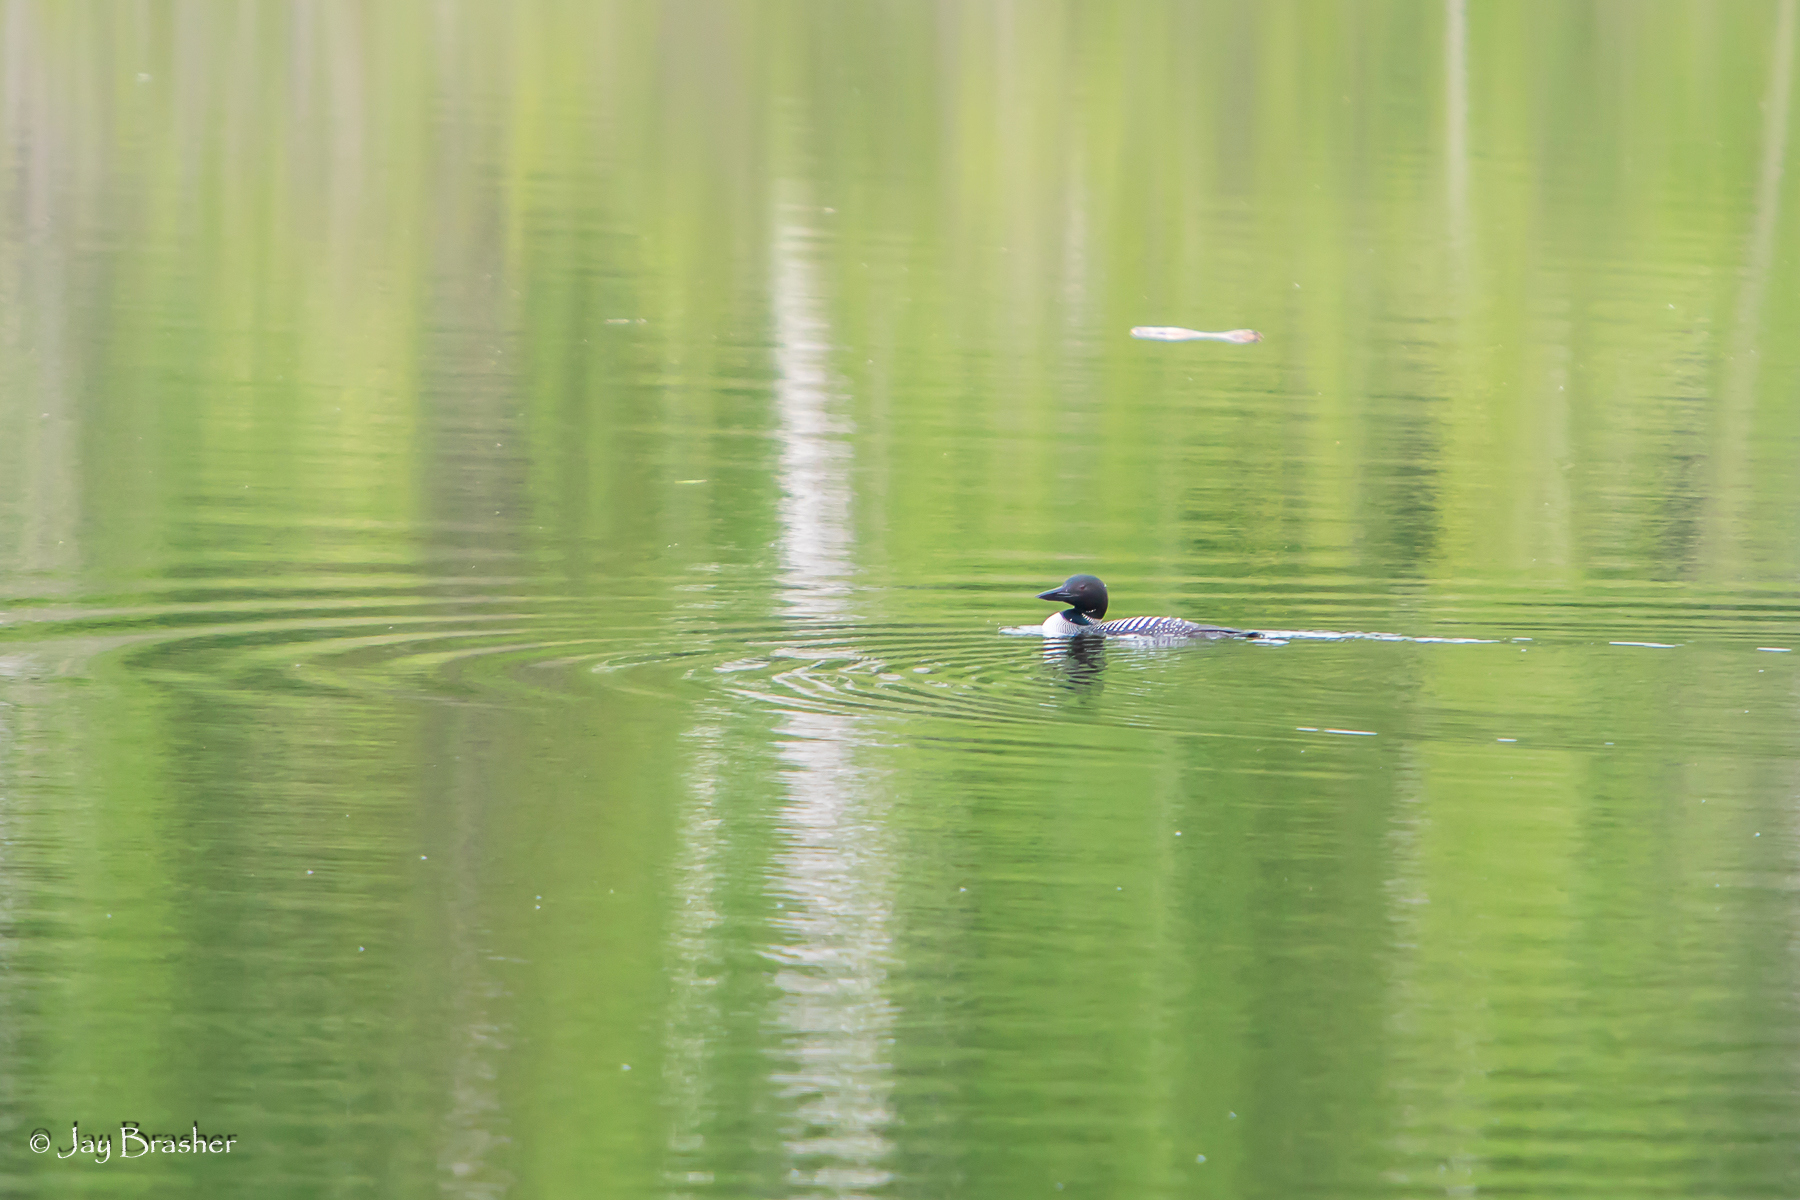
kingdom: Animalia
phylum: Chordata
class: Aves
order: Gaviiformes
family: Gaviidae
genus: Gavia
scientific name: Gavia immer
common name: Common loon
